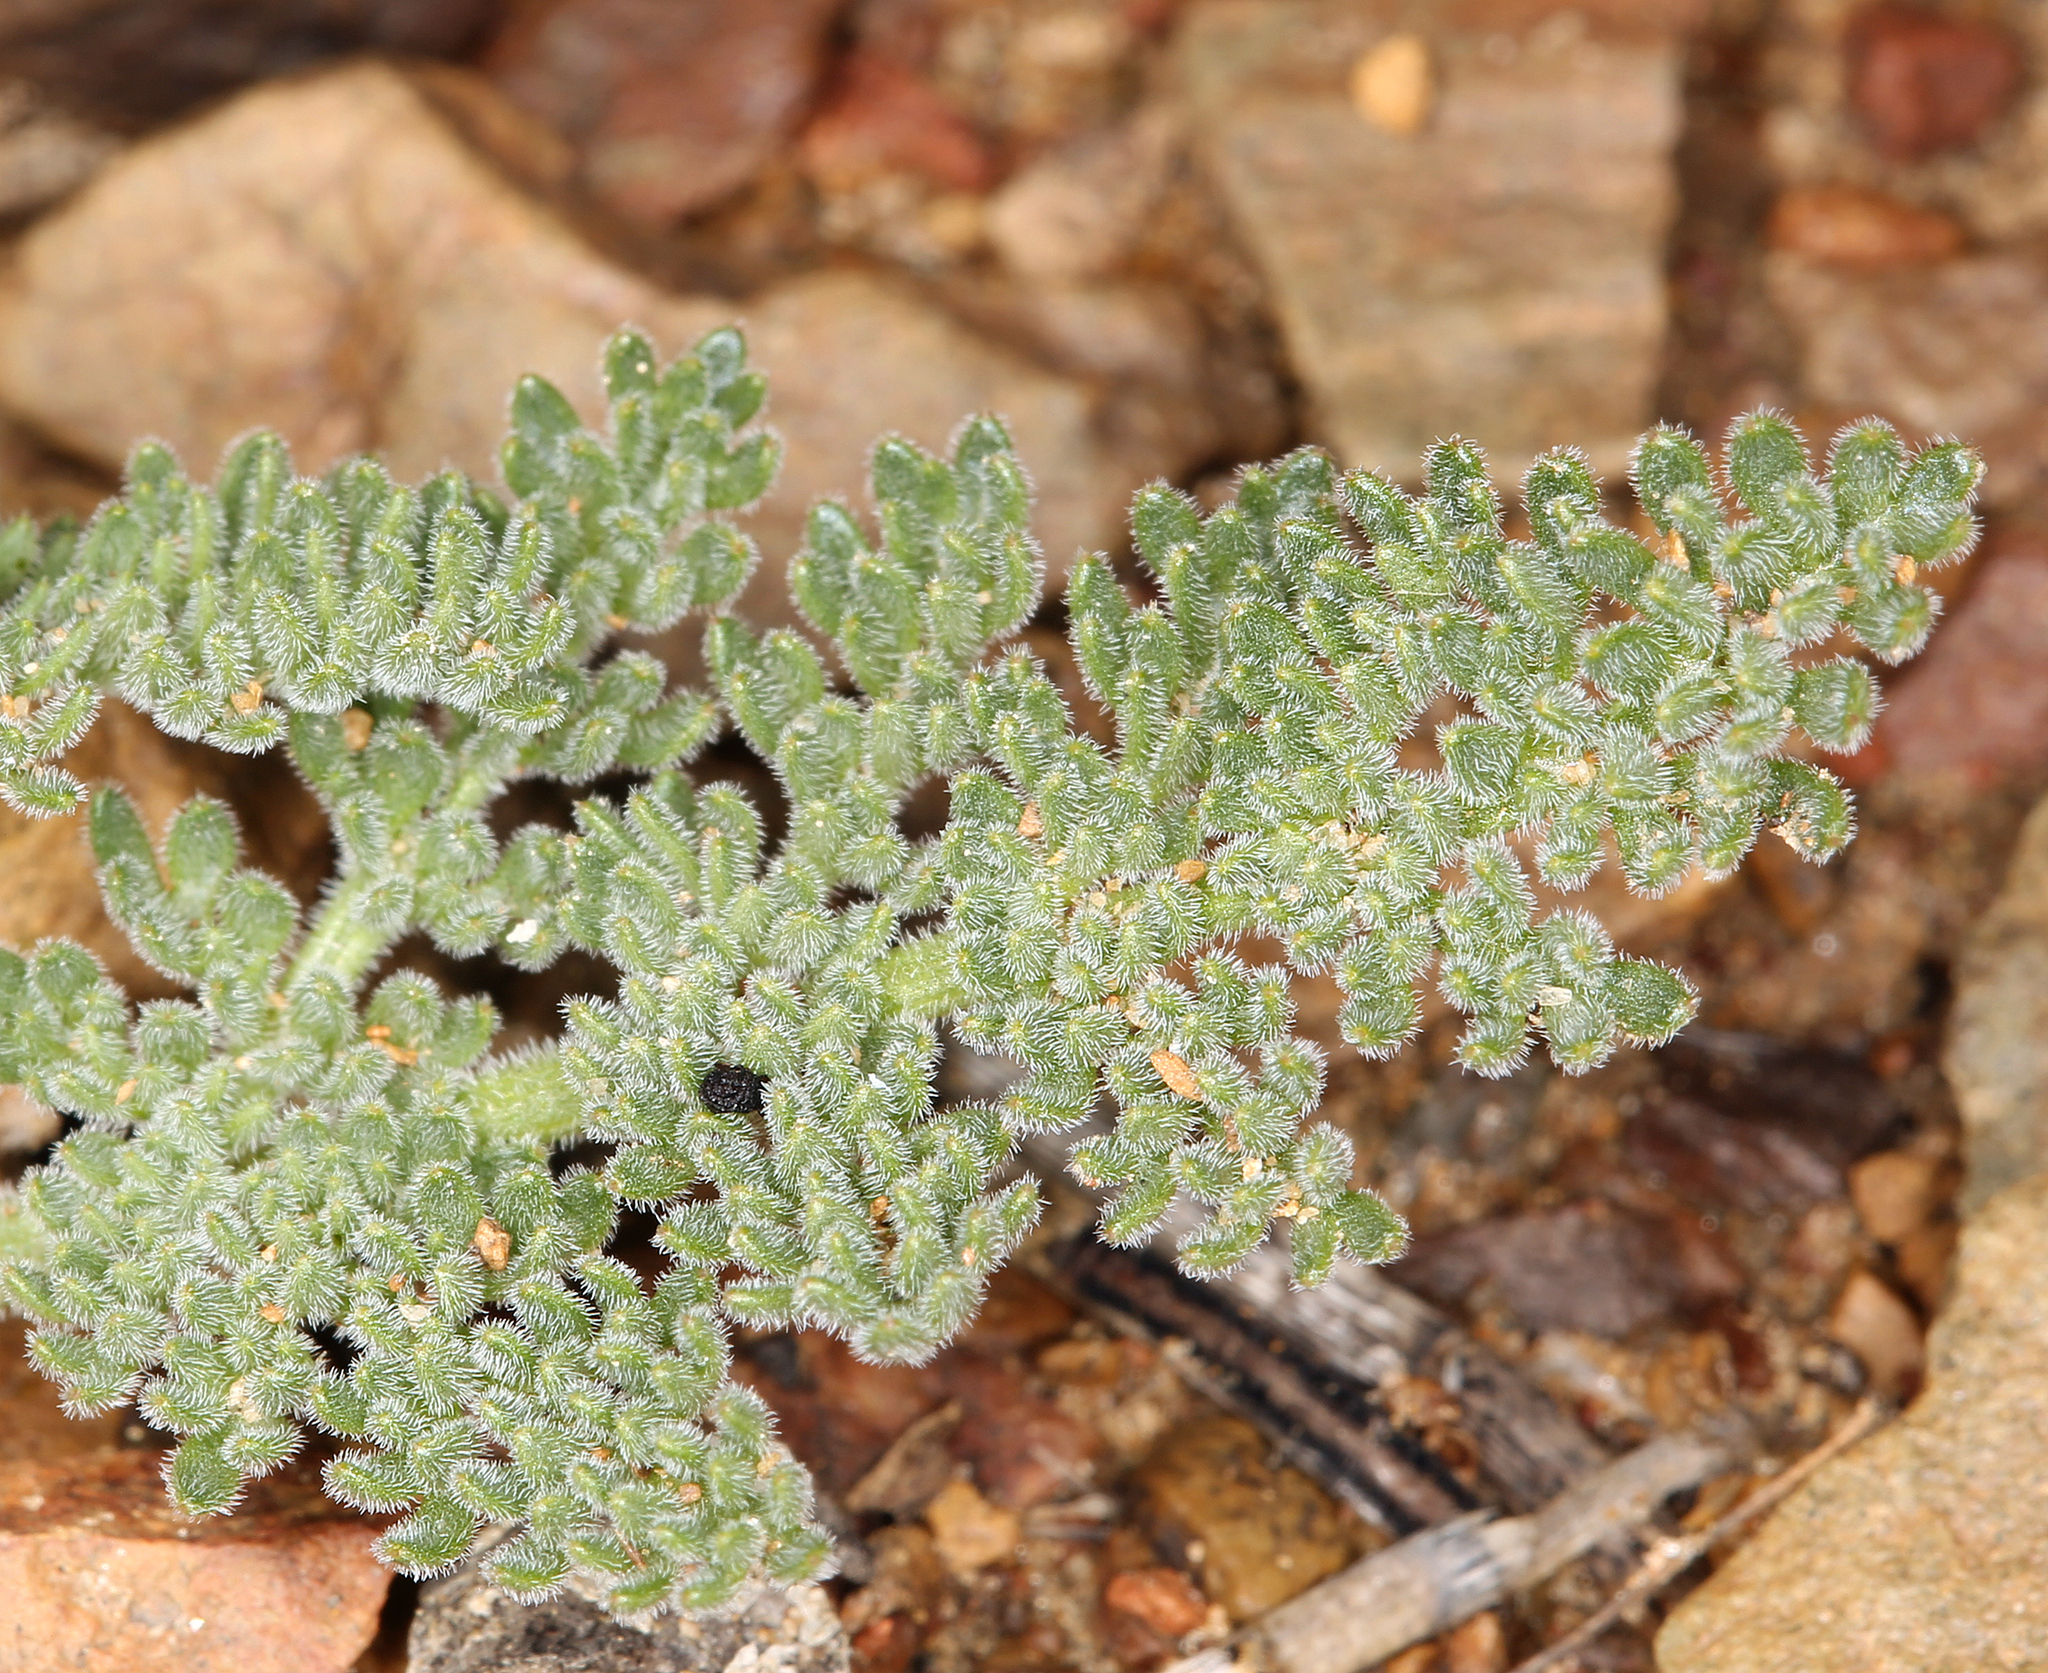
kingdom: Plantae
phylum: Tracheophyta
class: Magnoliopsida
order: Apiales
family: Apiaceae
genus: Lomatium
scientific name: Lomatium foeniculaceum
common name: Desert-parsley
